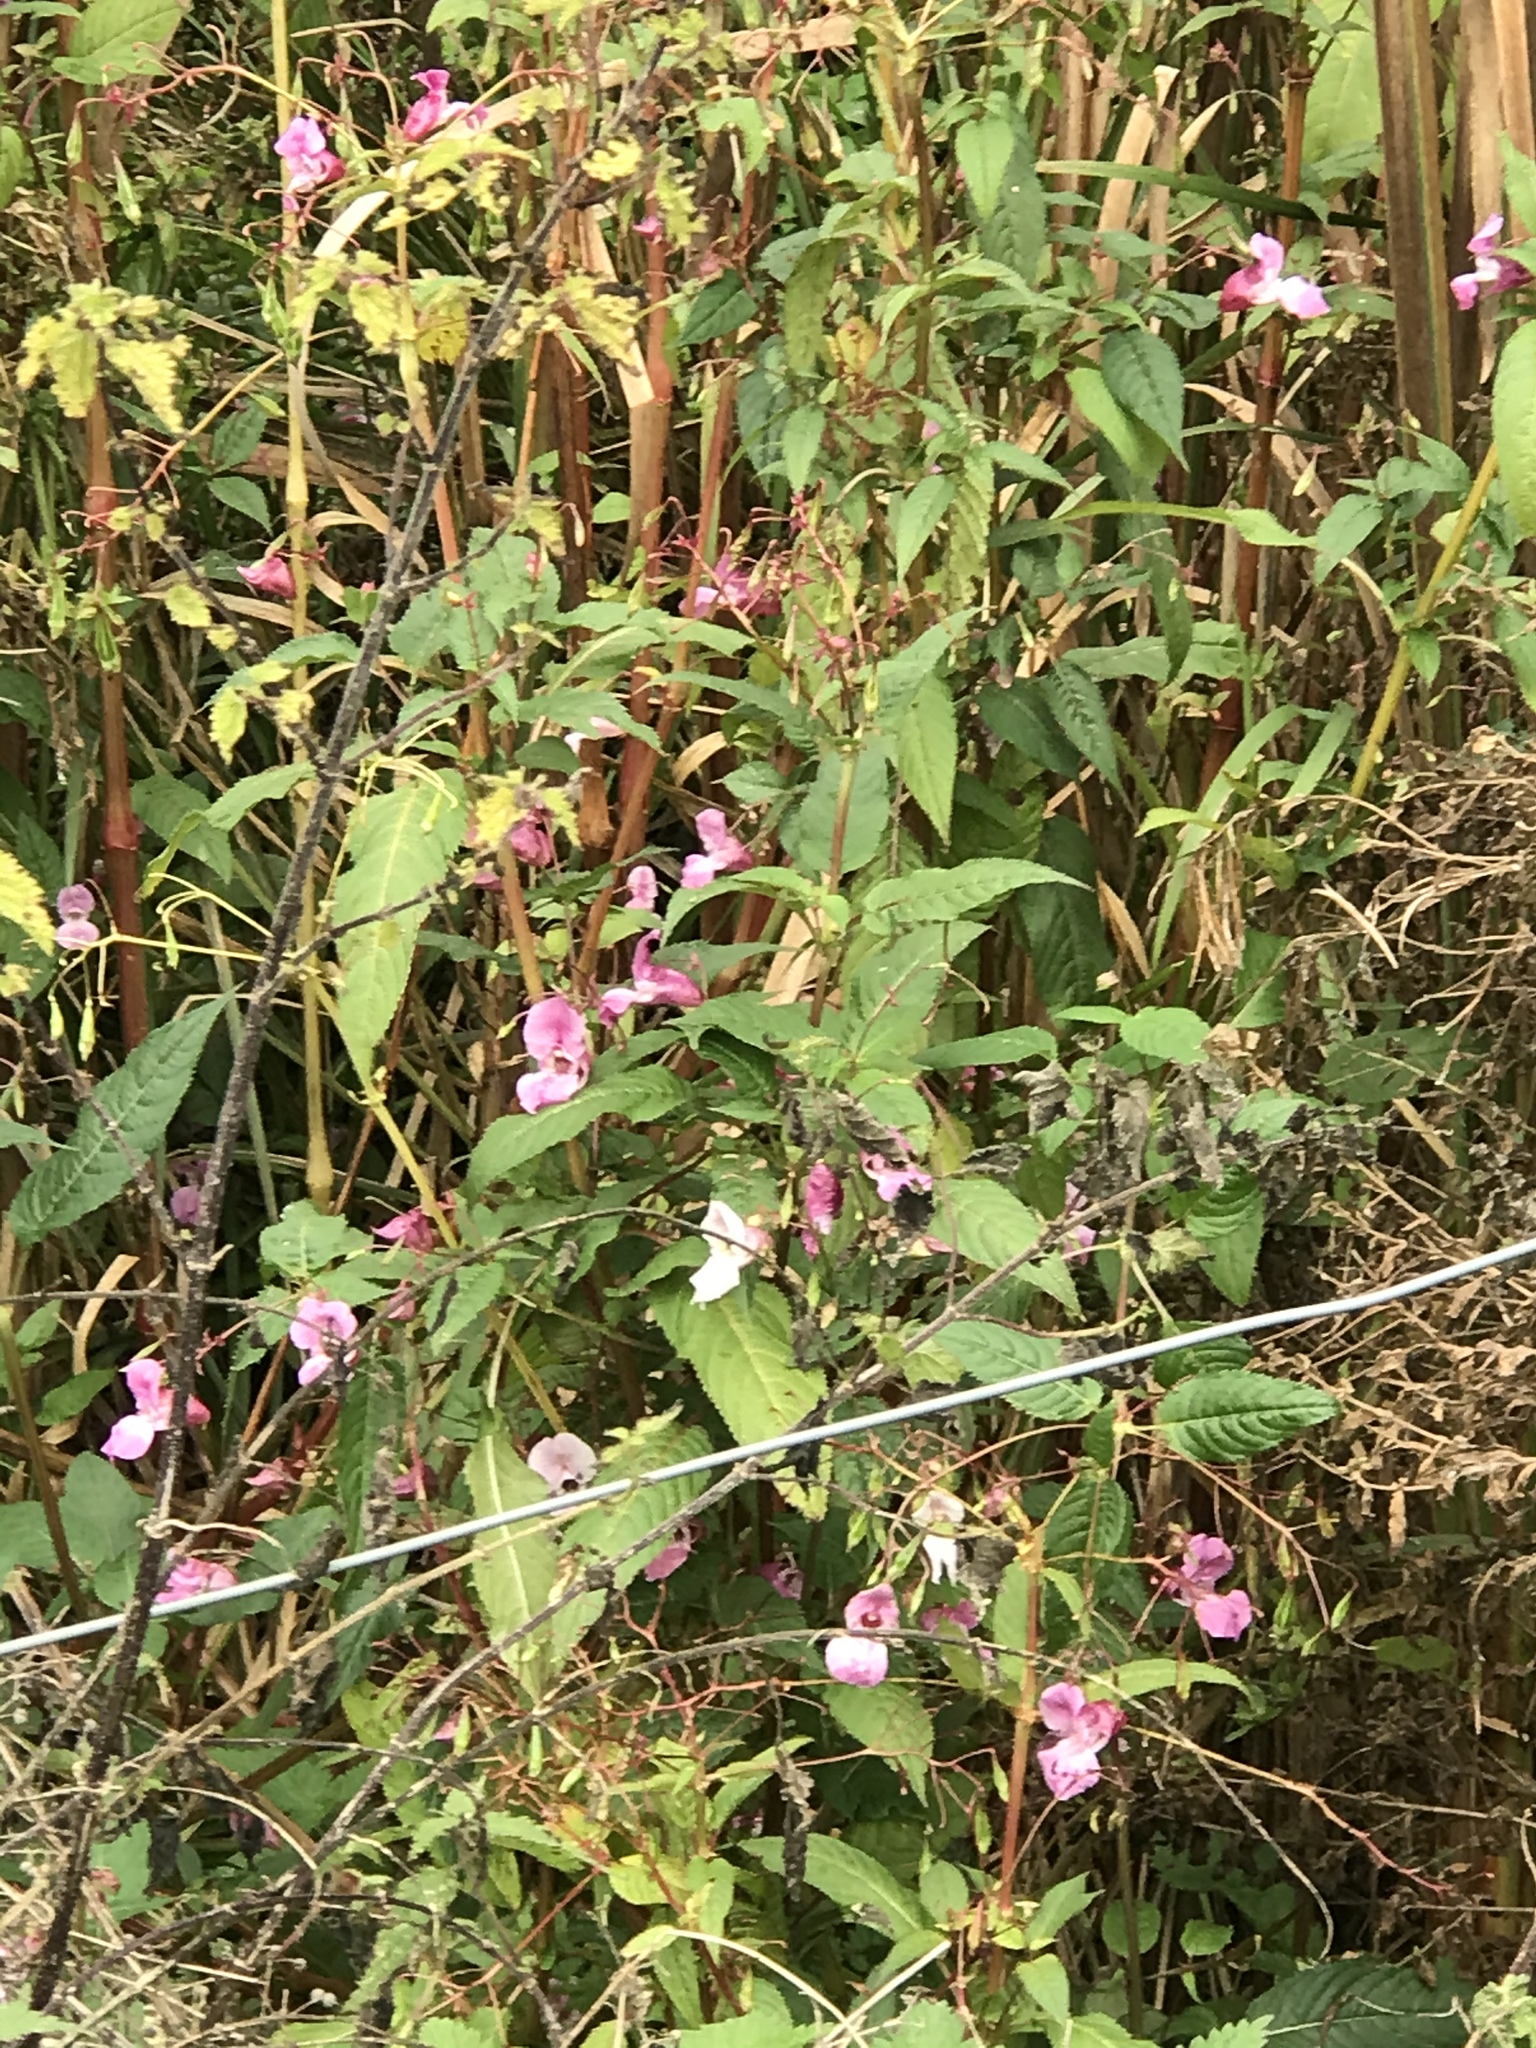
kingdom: Plantae
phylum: Tracheophyta
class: Magnoliopsida
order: Ericales
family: Balsaminaceae
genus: Impatiens
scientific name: Impatiens glandulifera
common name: Himalayan balsam
